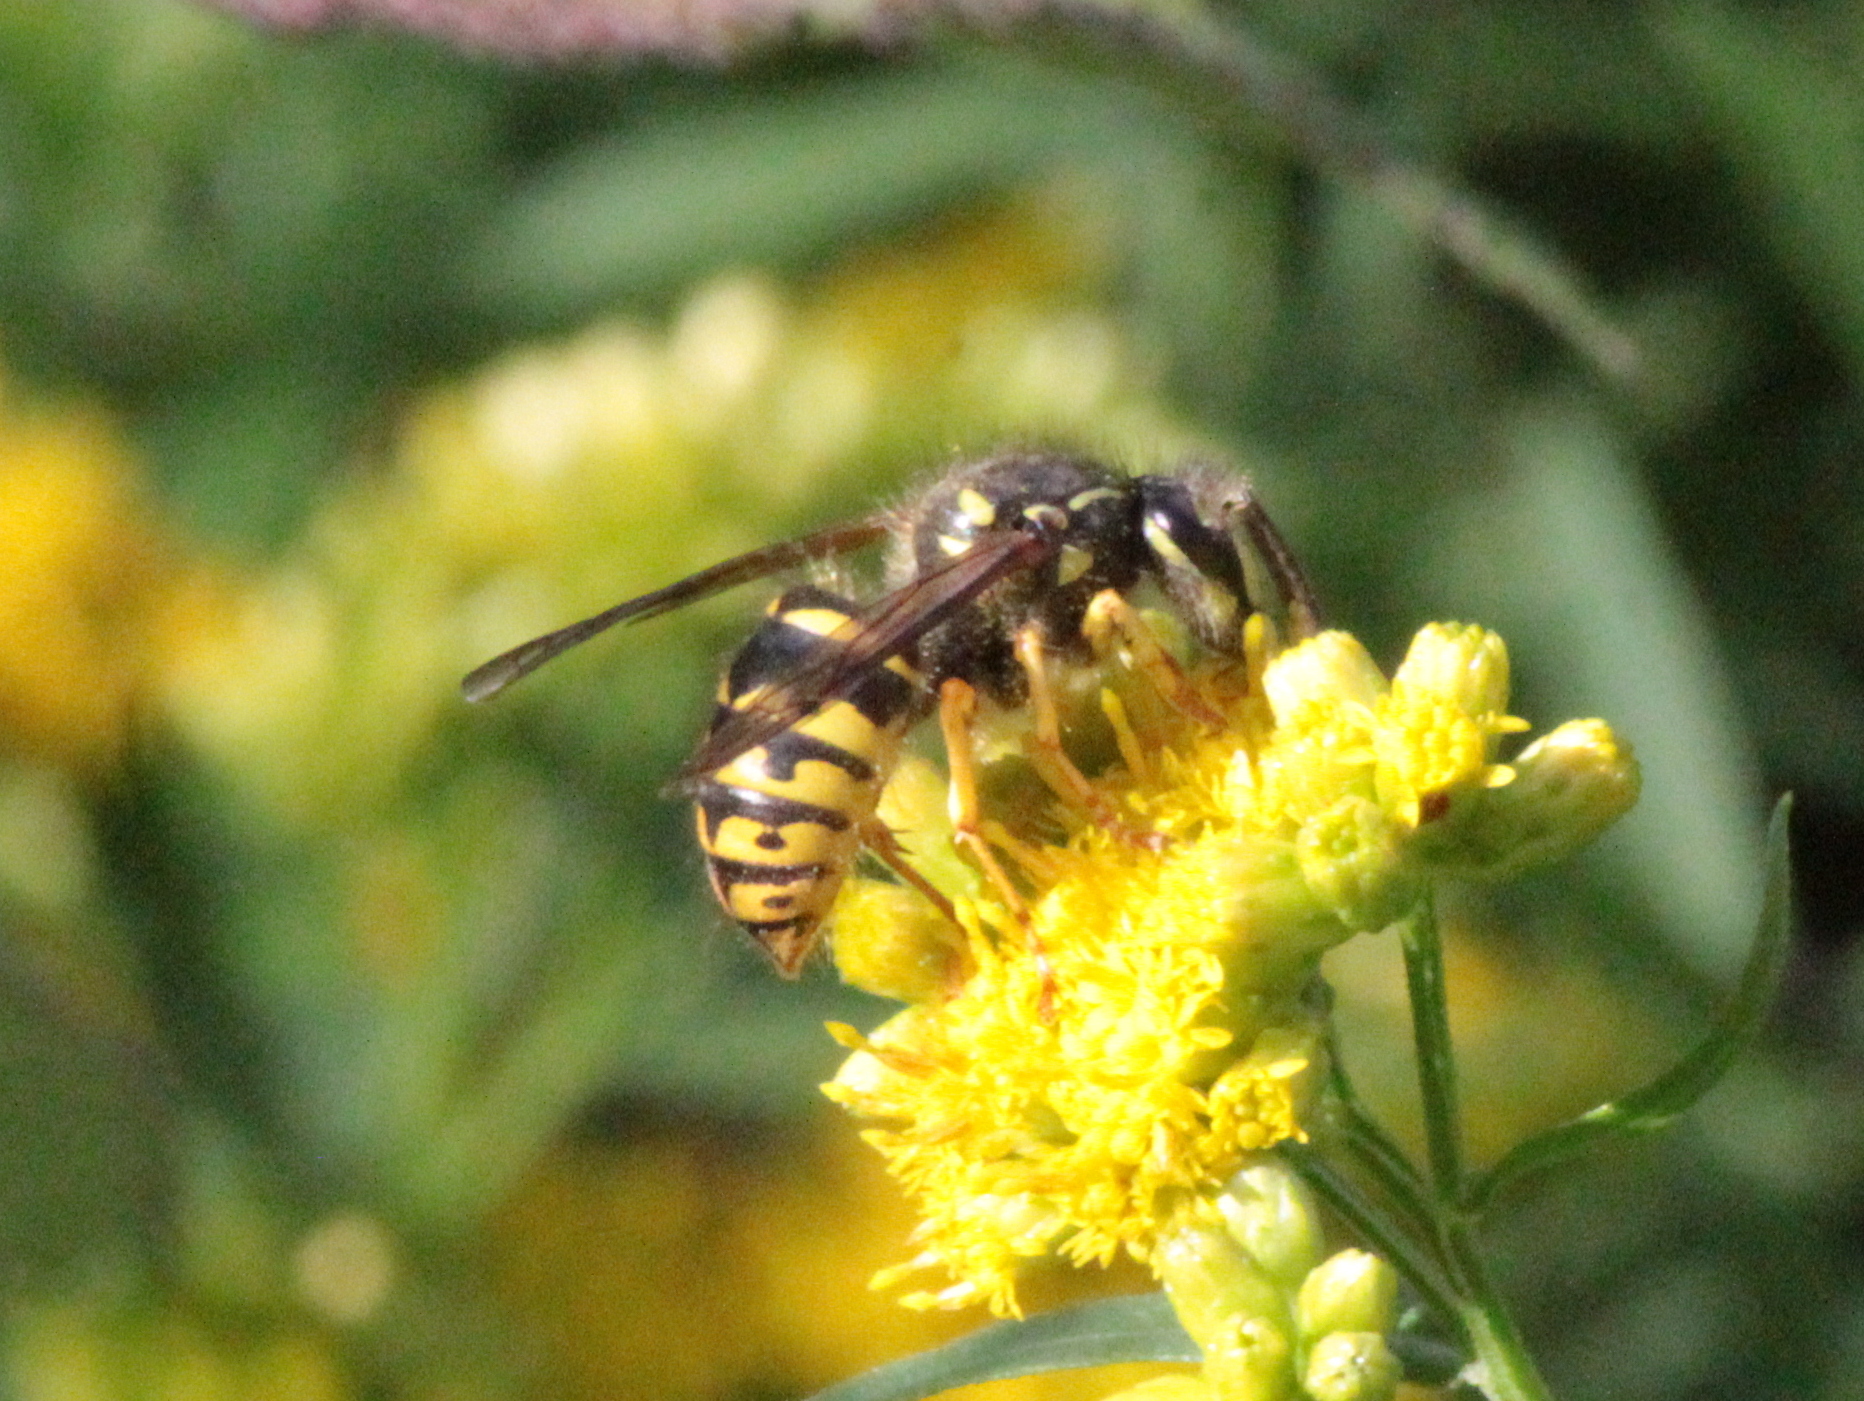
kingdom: Animalia
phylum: Arthropoda
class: Insecta
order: Hymenoptera
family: Vespidae
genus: Dolichovespula
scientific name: Dolichovespula arenaria
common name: Aerial yellowjacket
